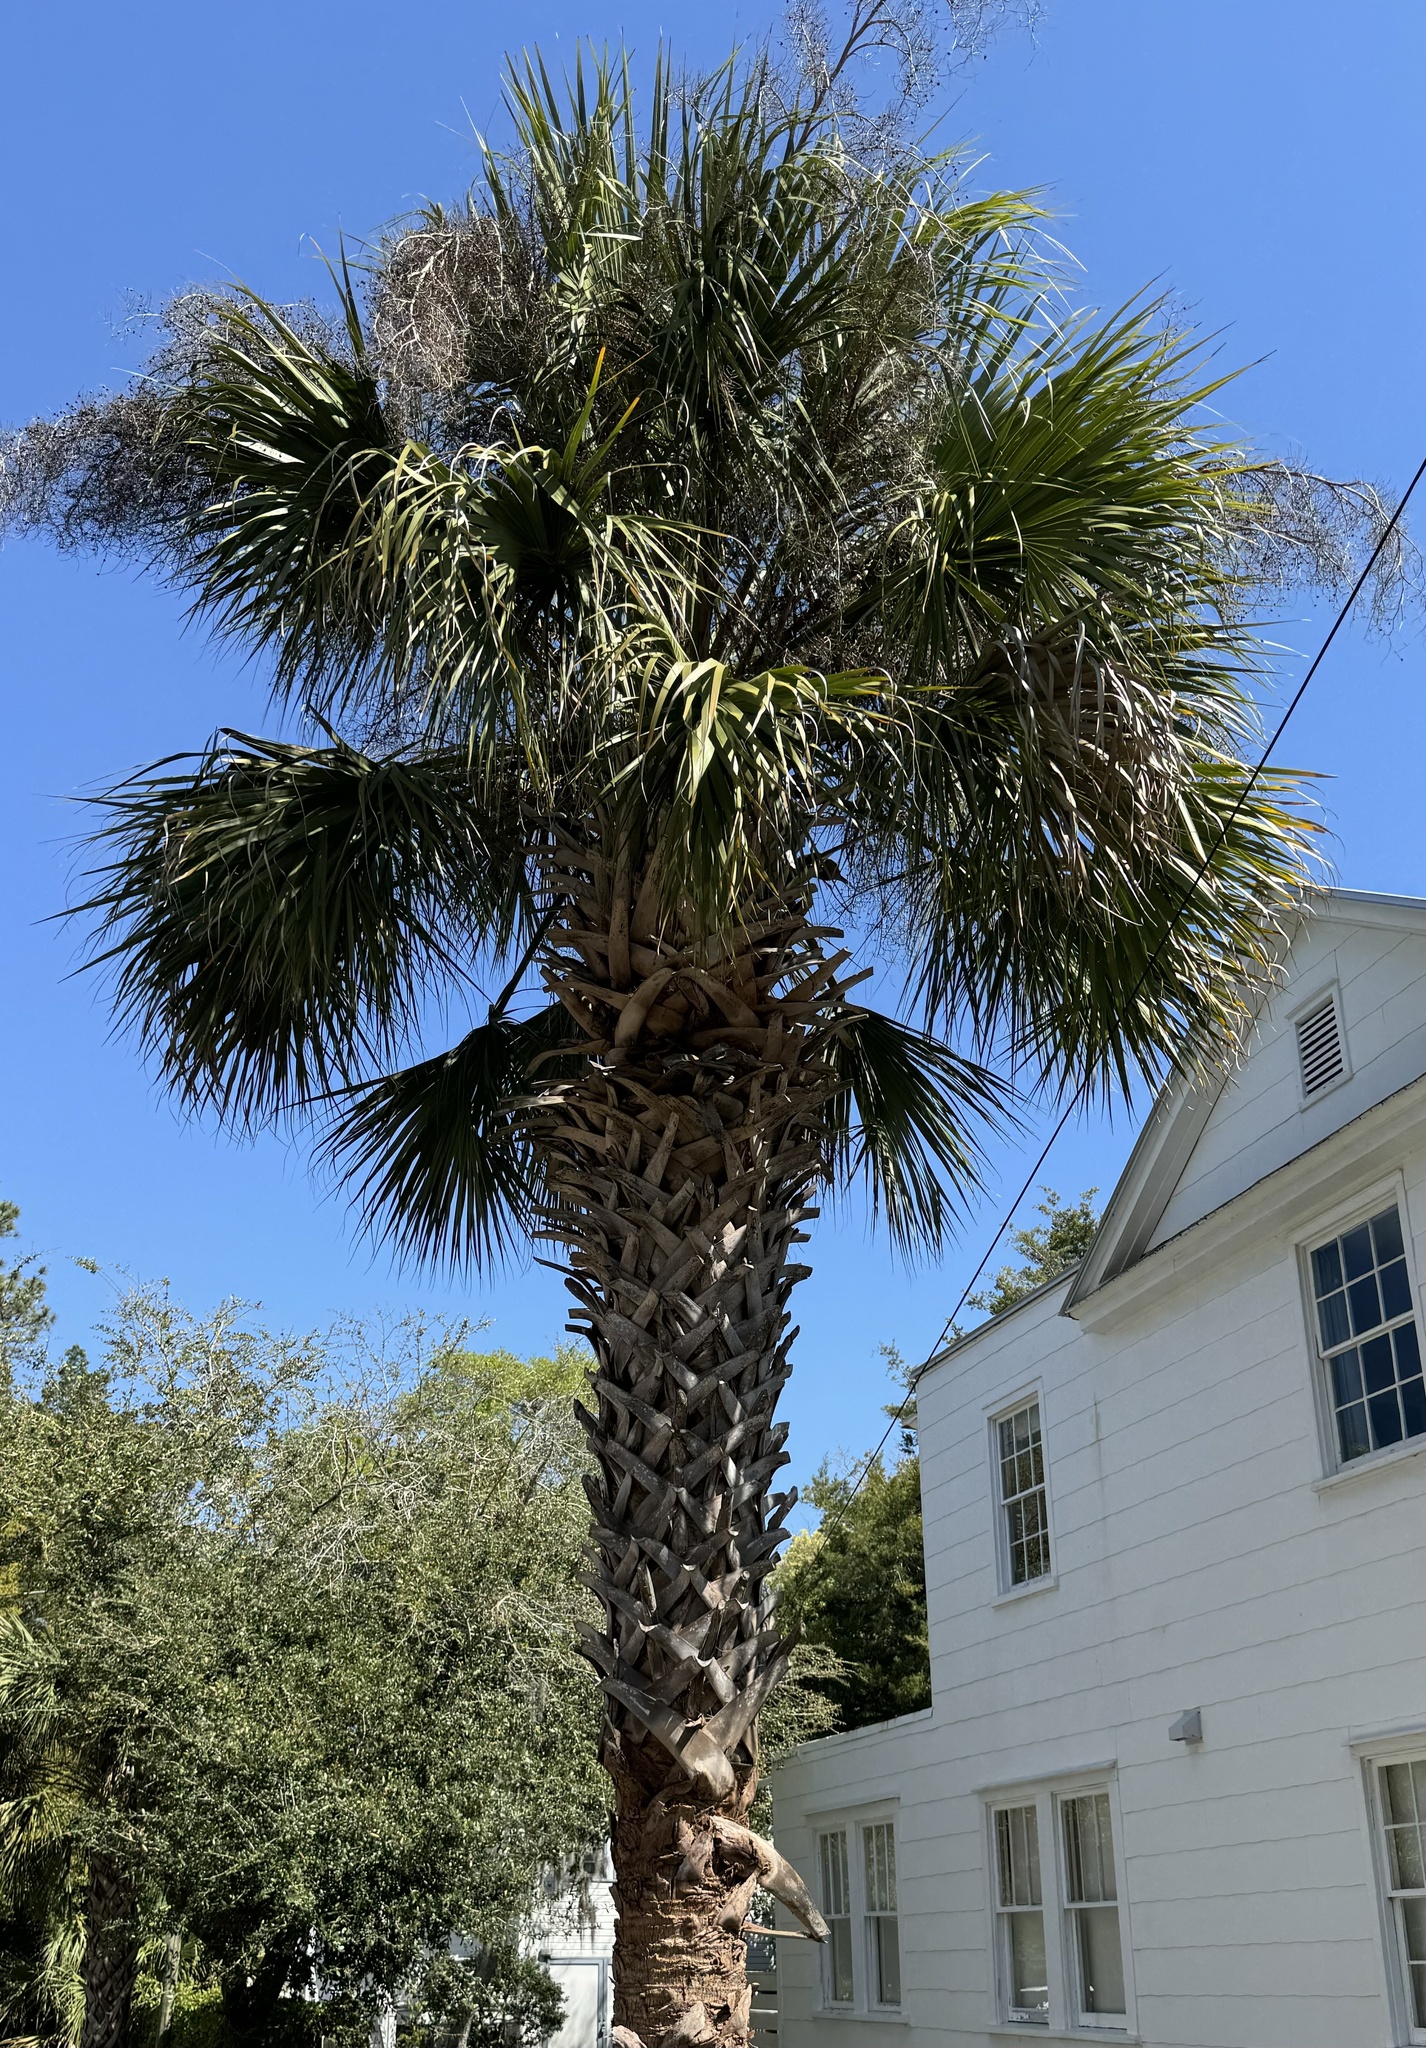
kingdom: Plantae
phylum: Tracheophyta
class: Liliopsida
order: Arecales
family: Arecaceae
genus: Sabal
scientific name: Sabal palmetto
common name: Blue palmetto
